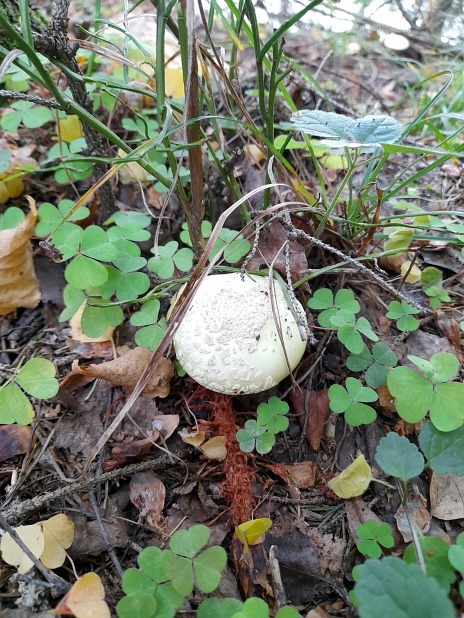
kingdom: Plantae
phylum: Tracheophyta
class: Magnoliopsida
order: Ericales
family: Ericaceae
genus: Vaccinium
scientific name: Vaccinium myrtillus
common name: Bilberry
